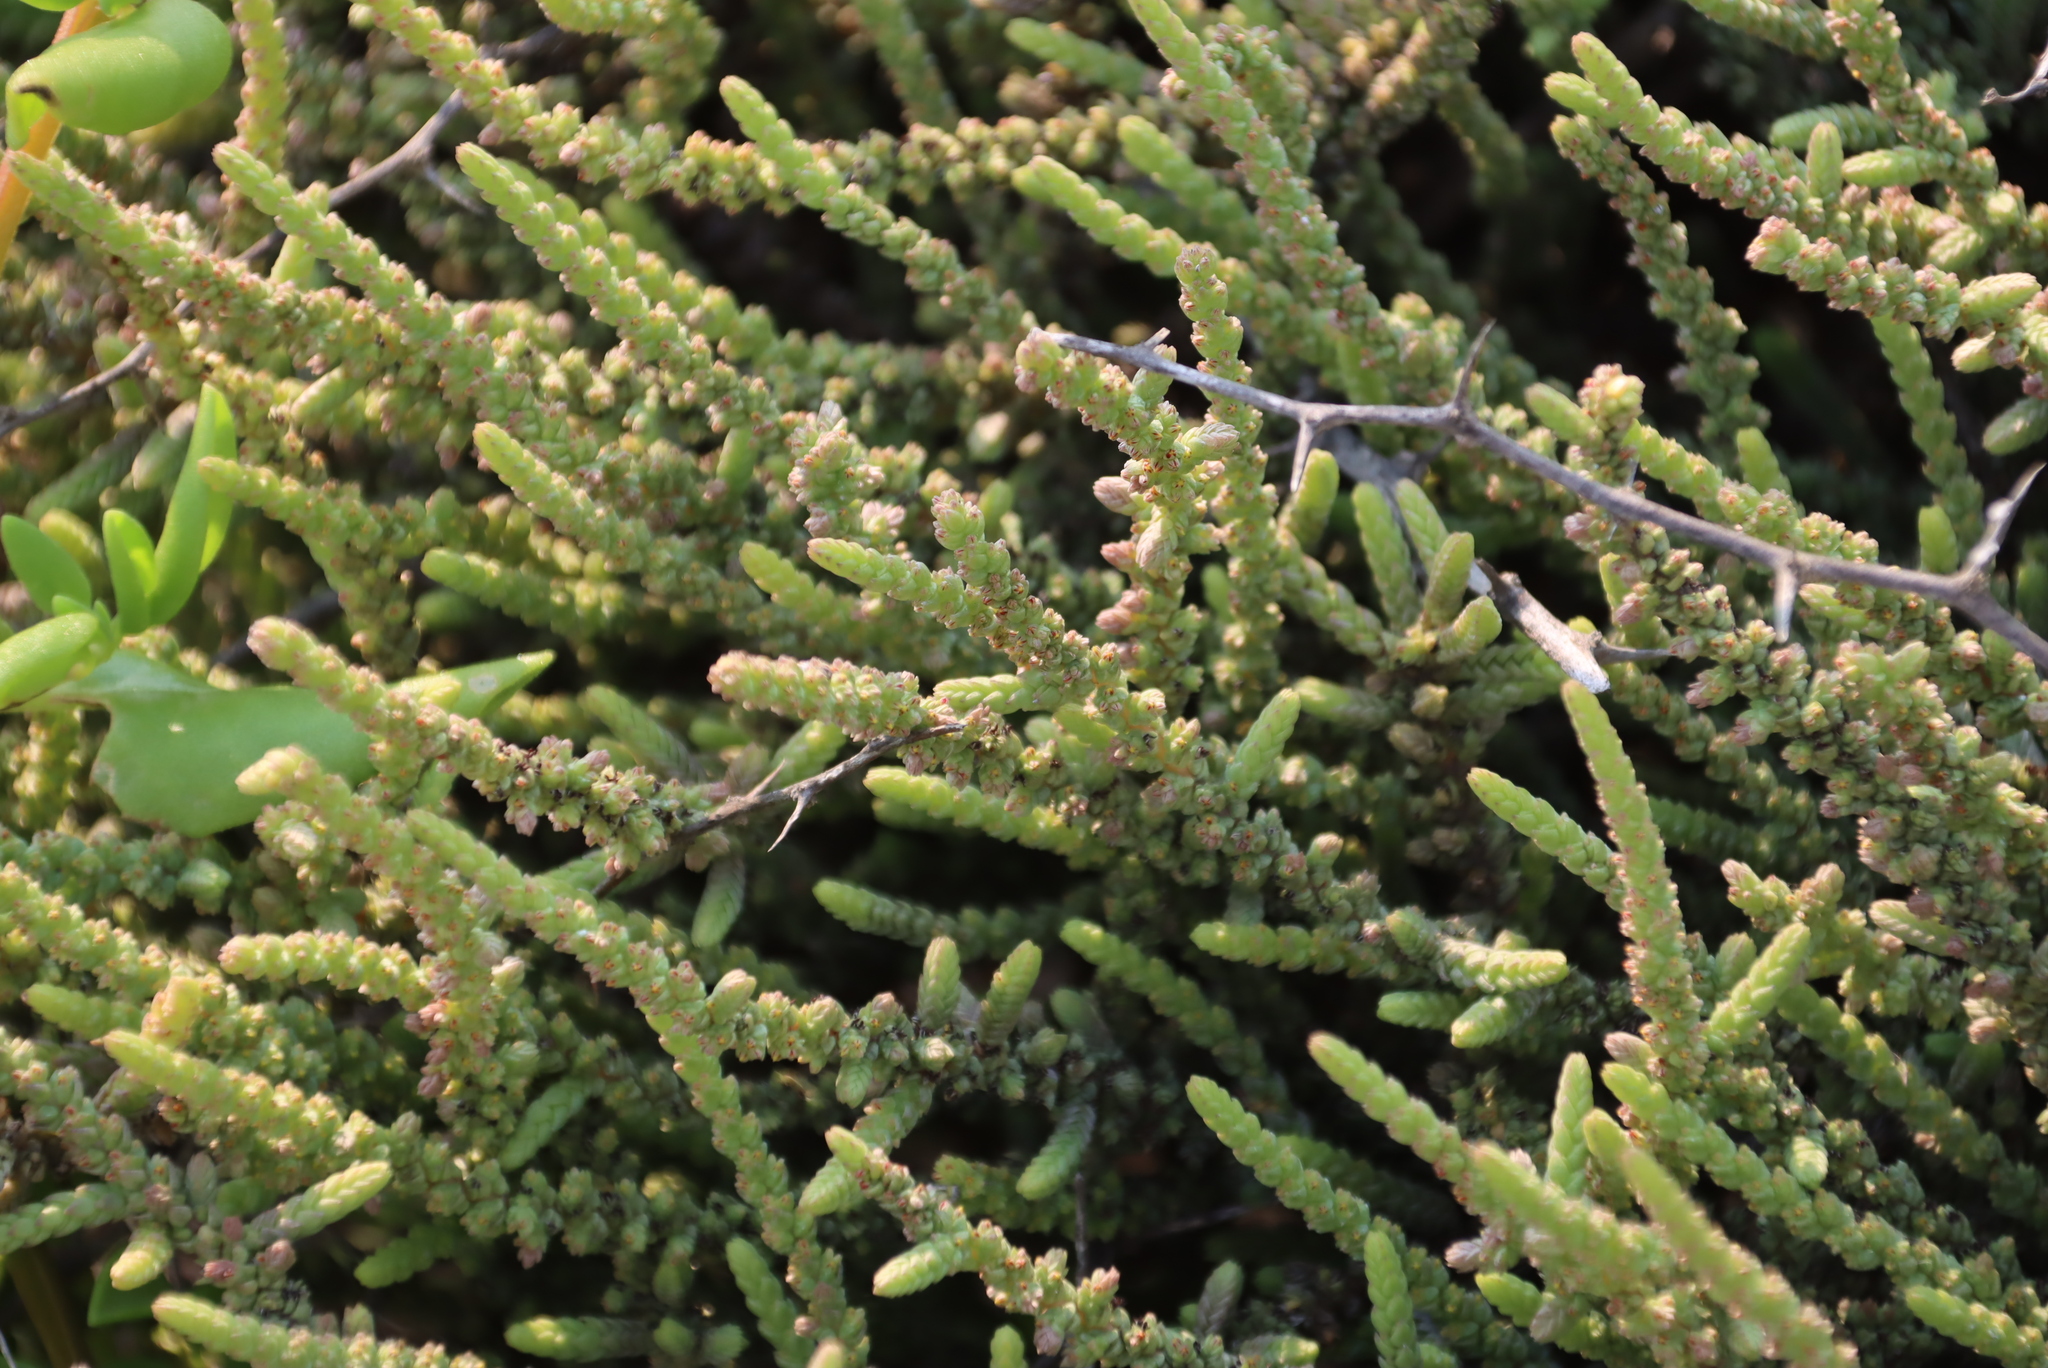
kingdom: Plantae
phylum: Tracheophyta
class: Magnoliopsida
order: Saxifragales
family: Crassulaceae
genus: Crassula
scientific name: Crassula muscosa
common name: Toy-cypress
